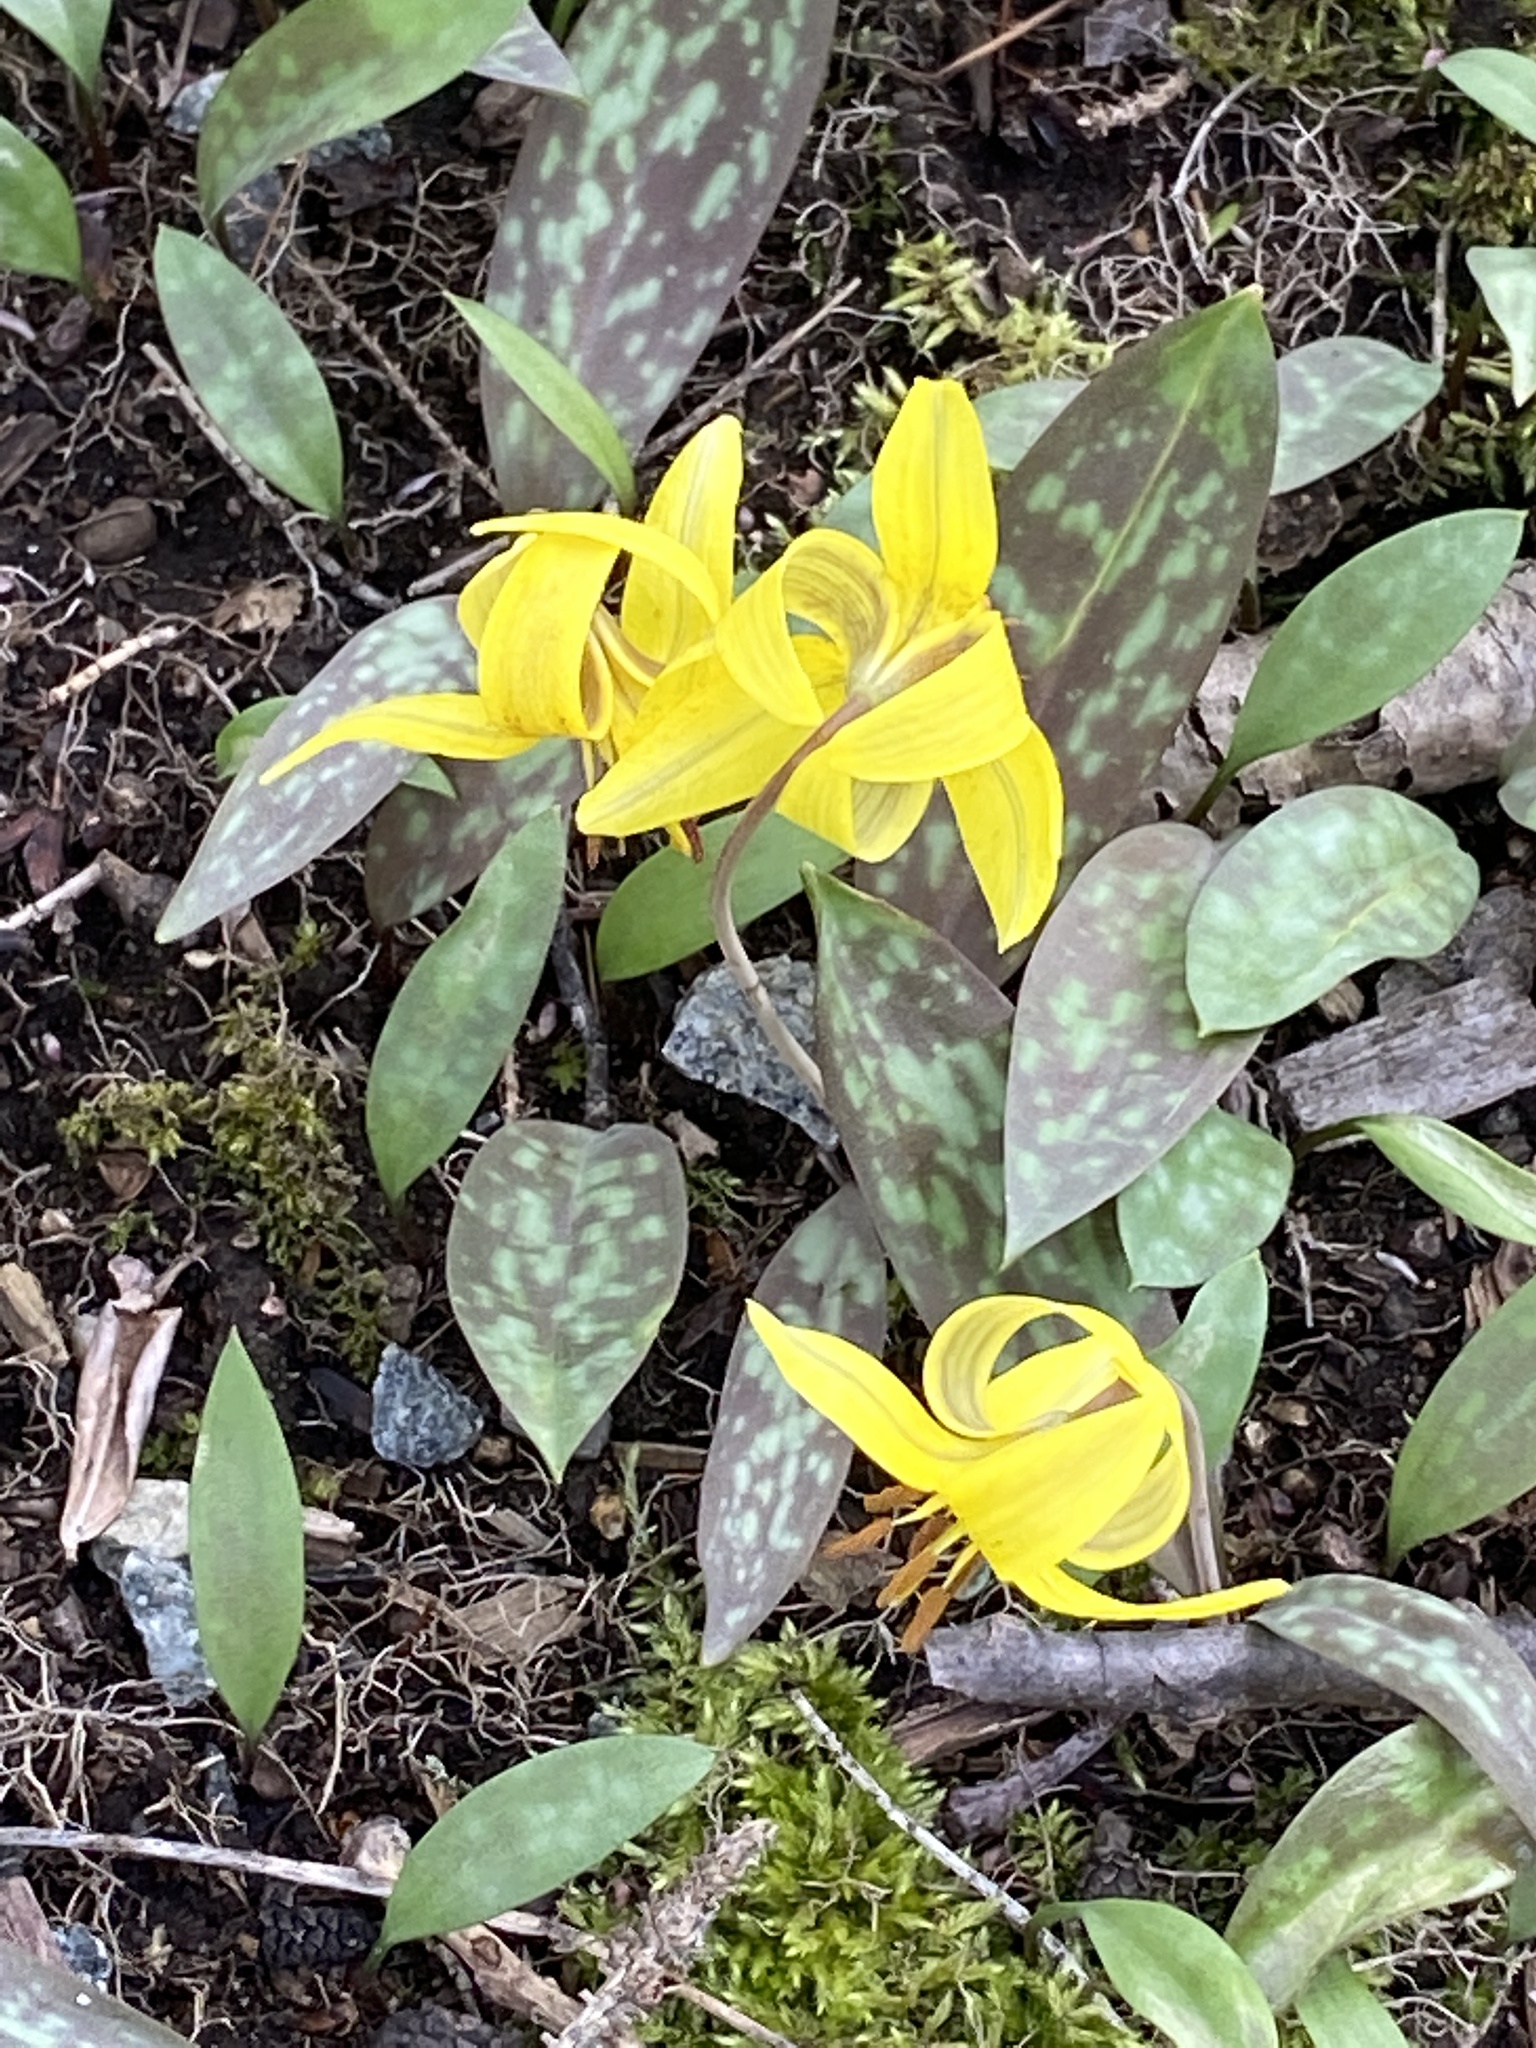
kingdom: Plantae
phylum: Tracheophyta
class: Liliopsida
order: Liliales
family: Liliaceae
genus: Erythronium
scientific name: Erythronium americanum
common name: Yellow adder's-tongue
